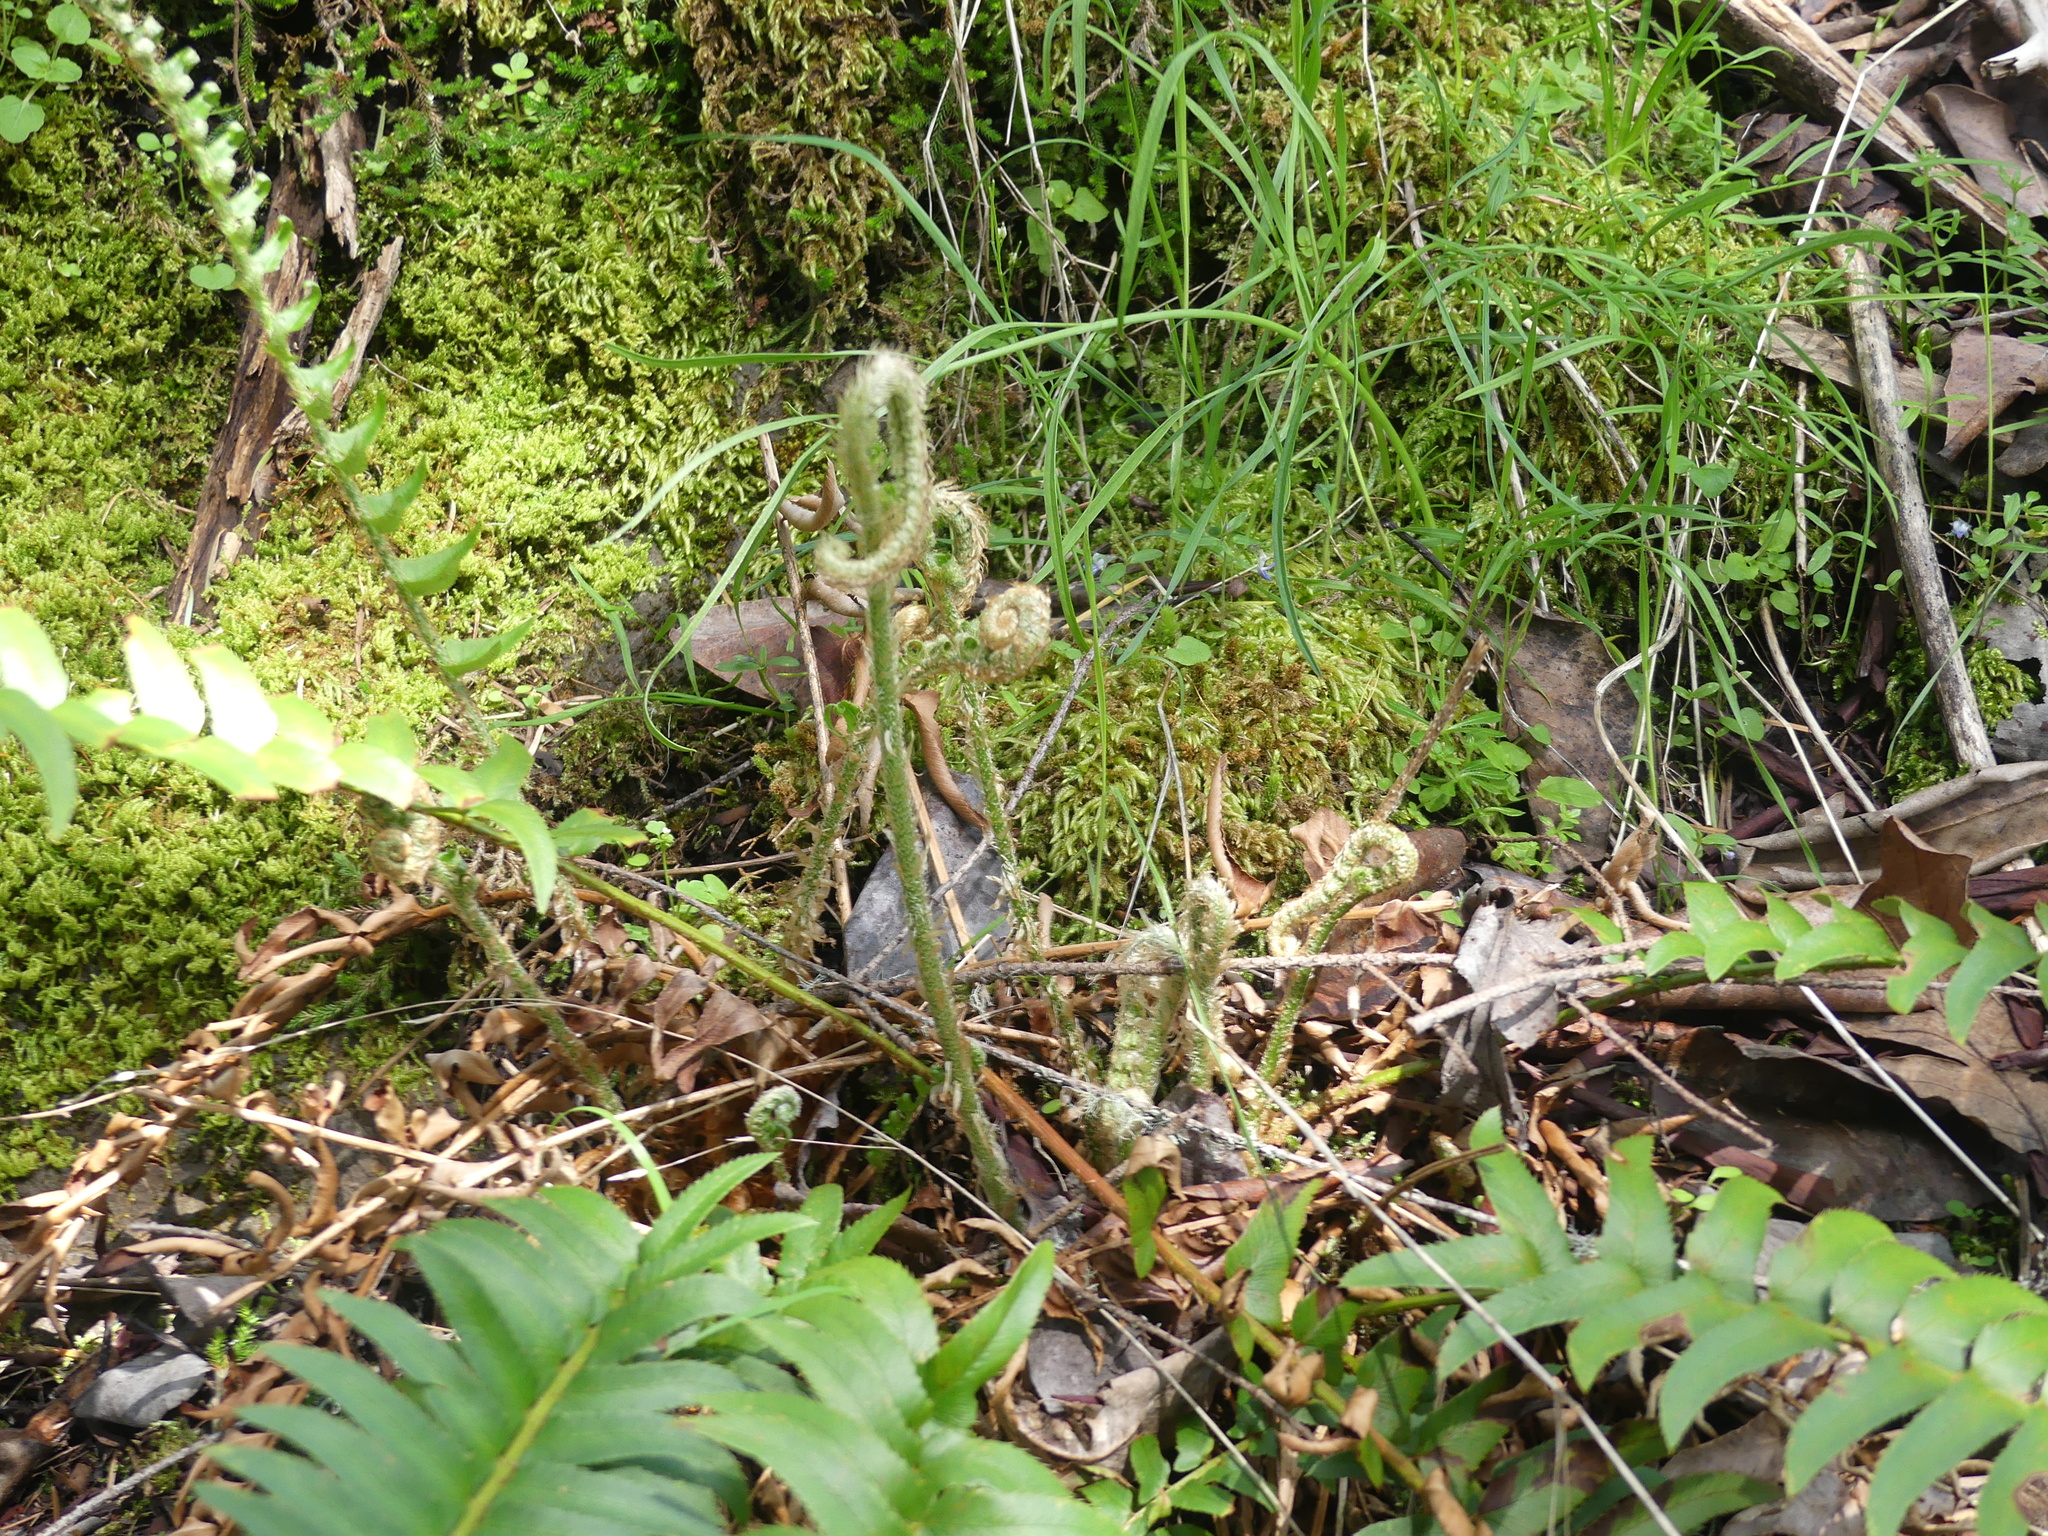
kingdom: Plantae
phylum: Tracheophyta
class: Polypodiopsida
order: Polypodiales
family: Dryopteridaceae
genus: Polystichum
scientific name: Polystichum munitum
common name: Western sword-fern
